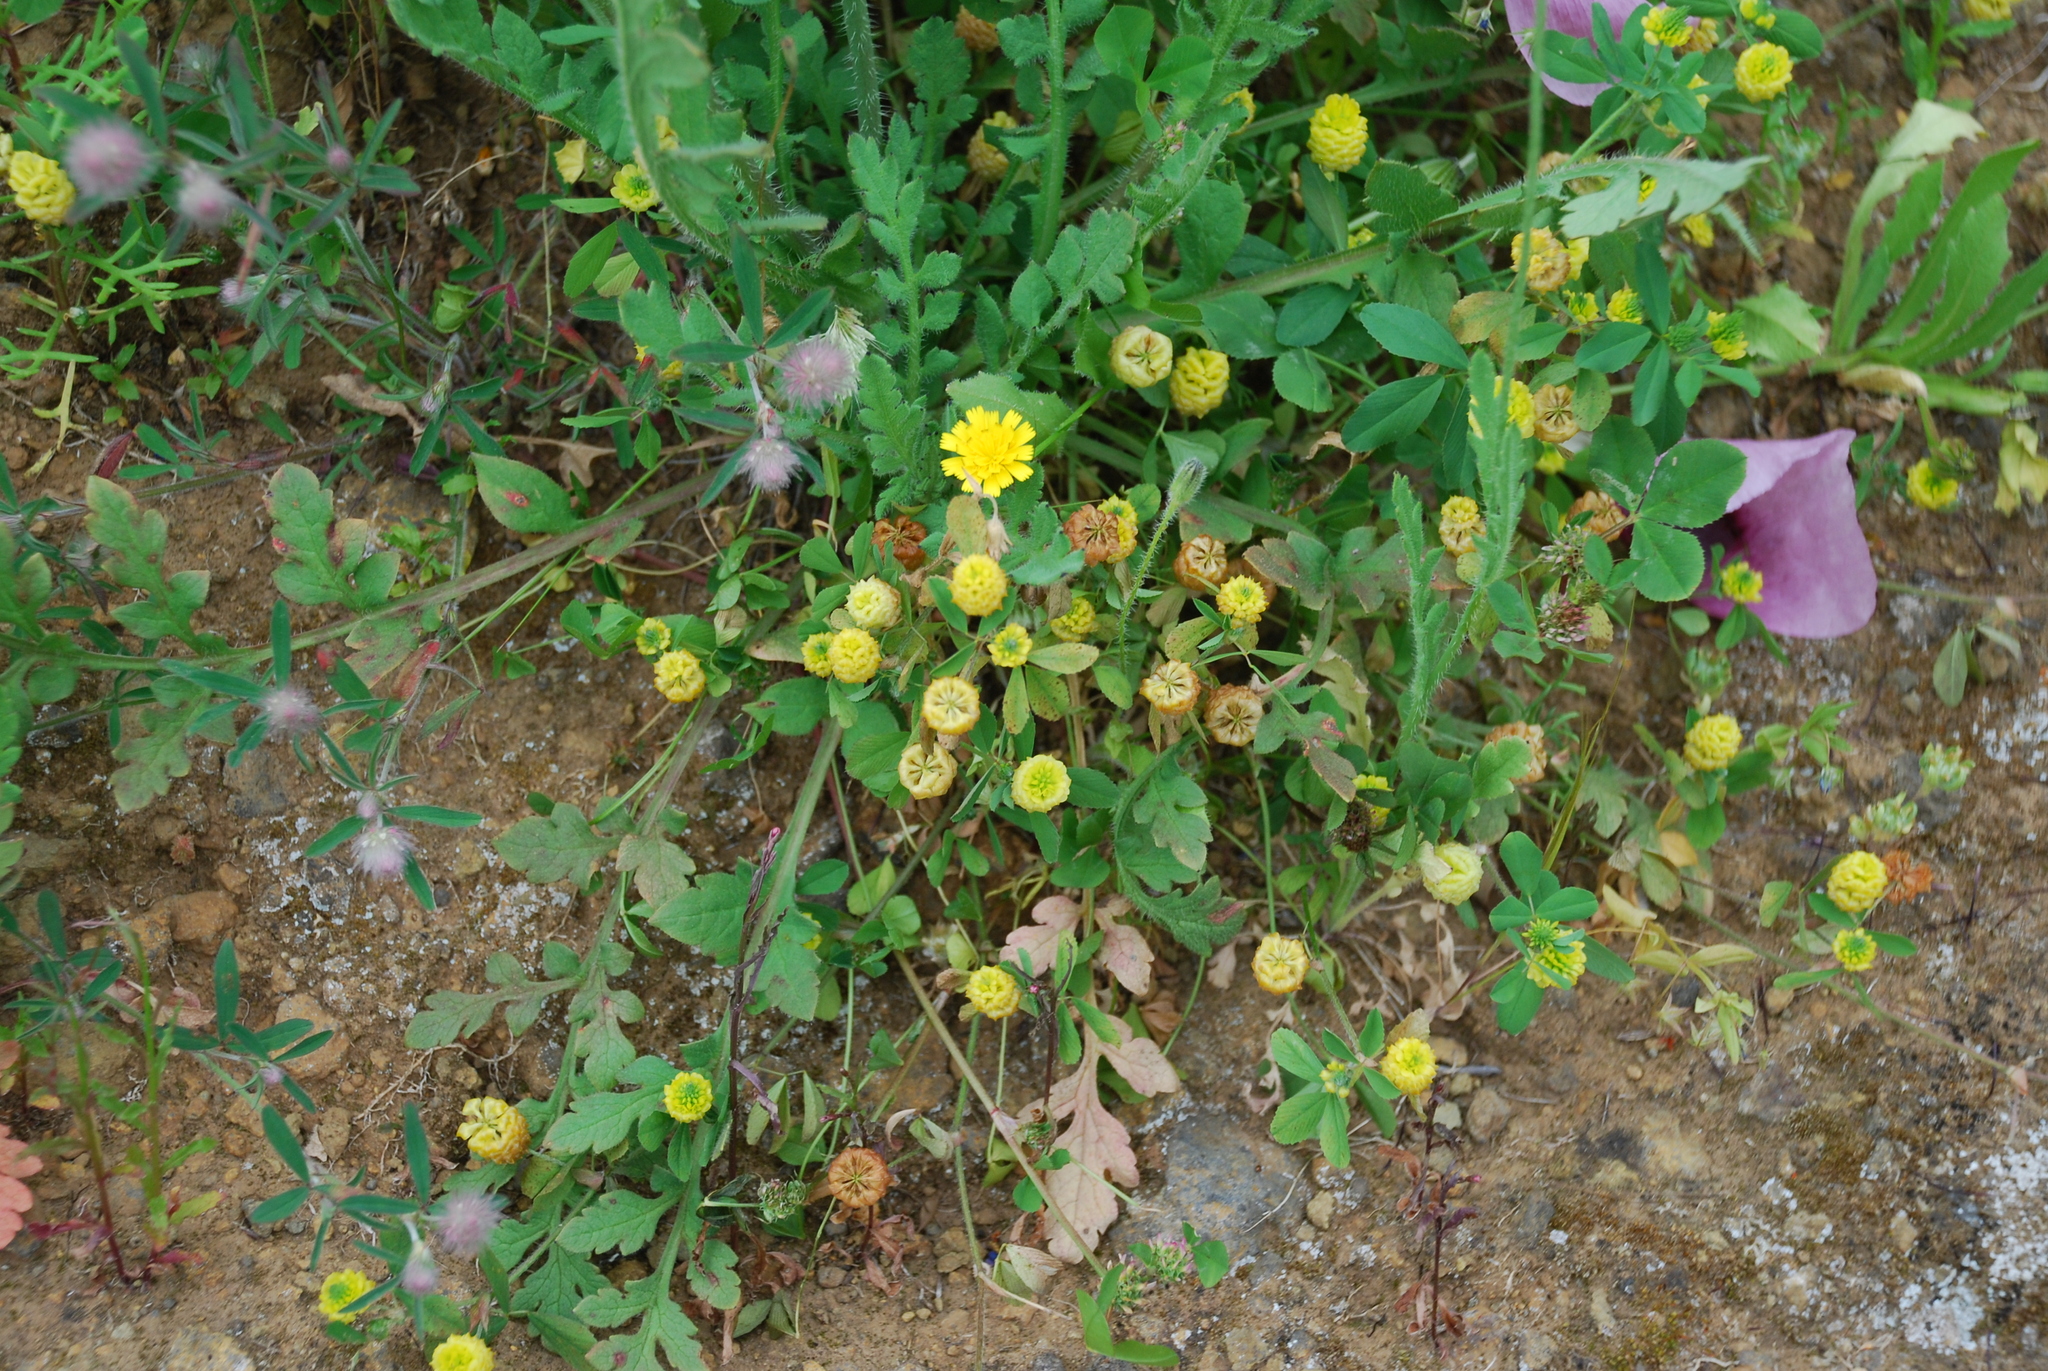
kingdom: Plantae
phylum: Tracheophyta
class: Magnoliopsida
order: Fabales
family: Fabaceae
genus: Trifolium
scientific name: Trifolium campestre
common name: Field clover
